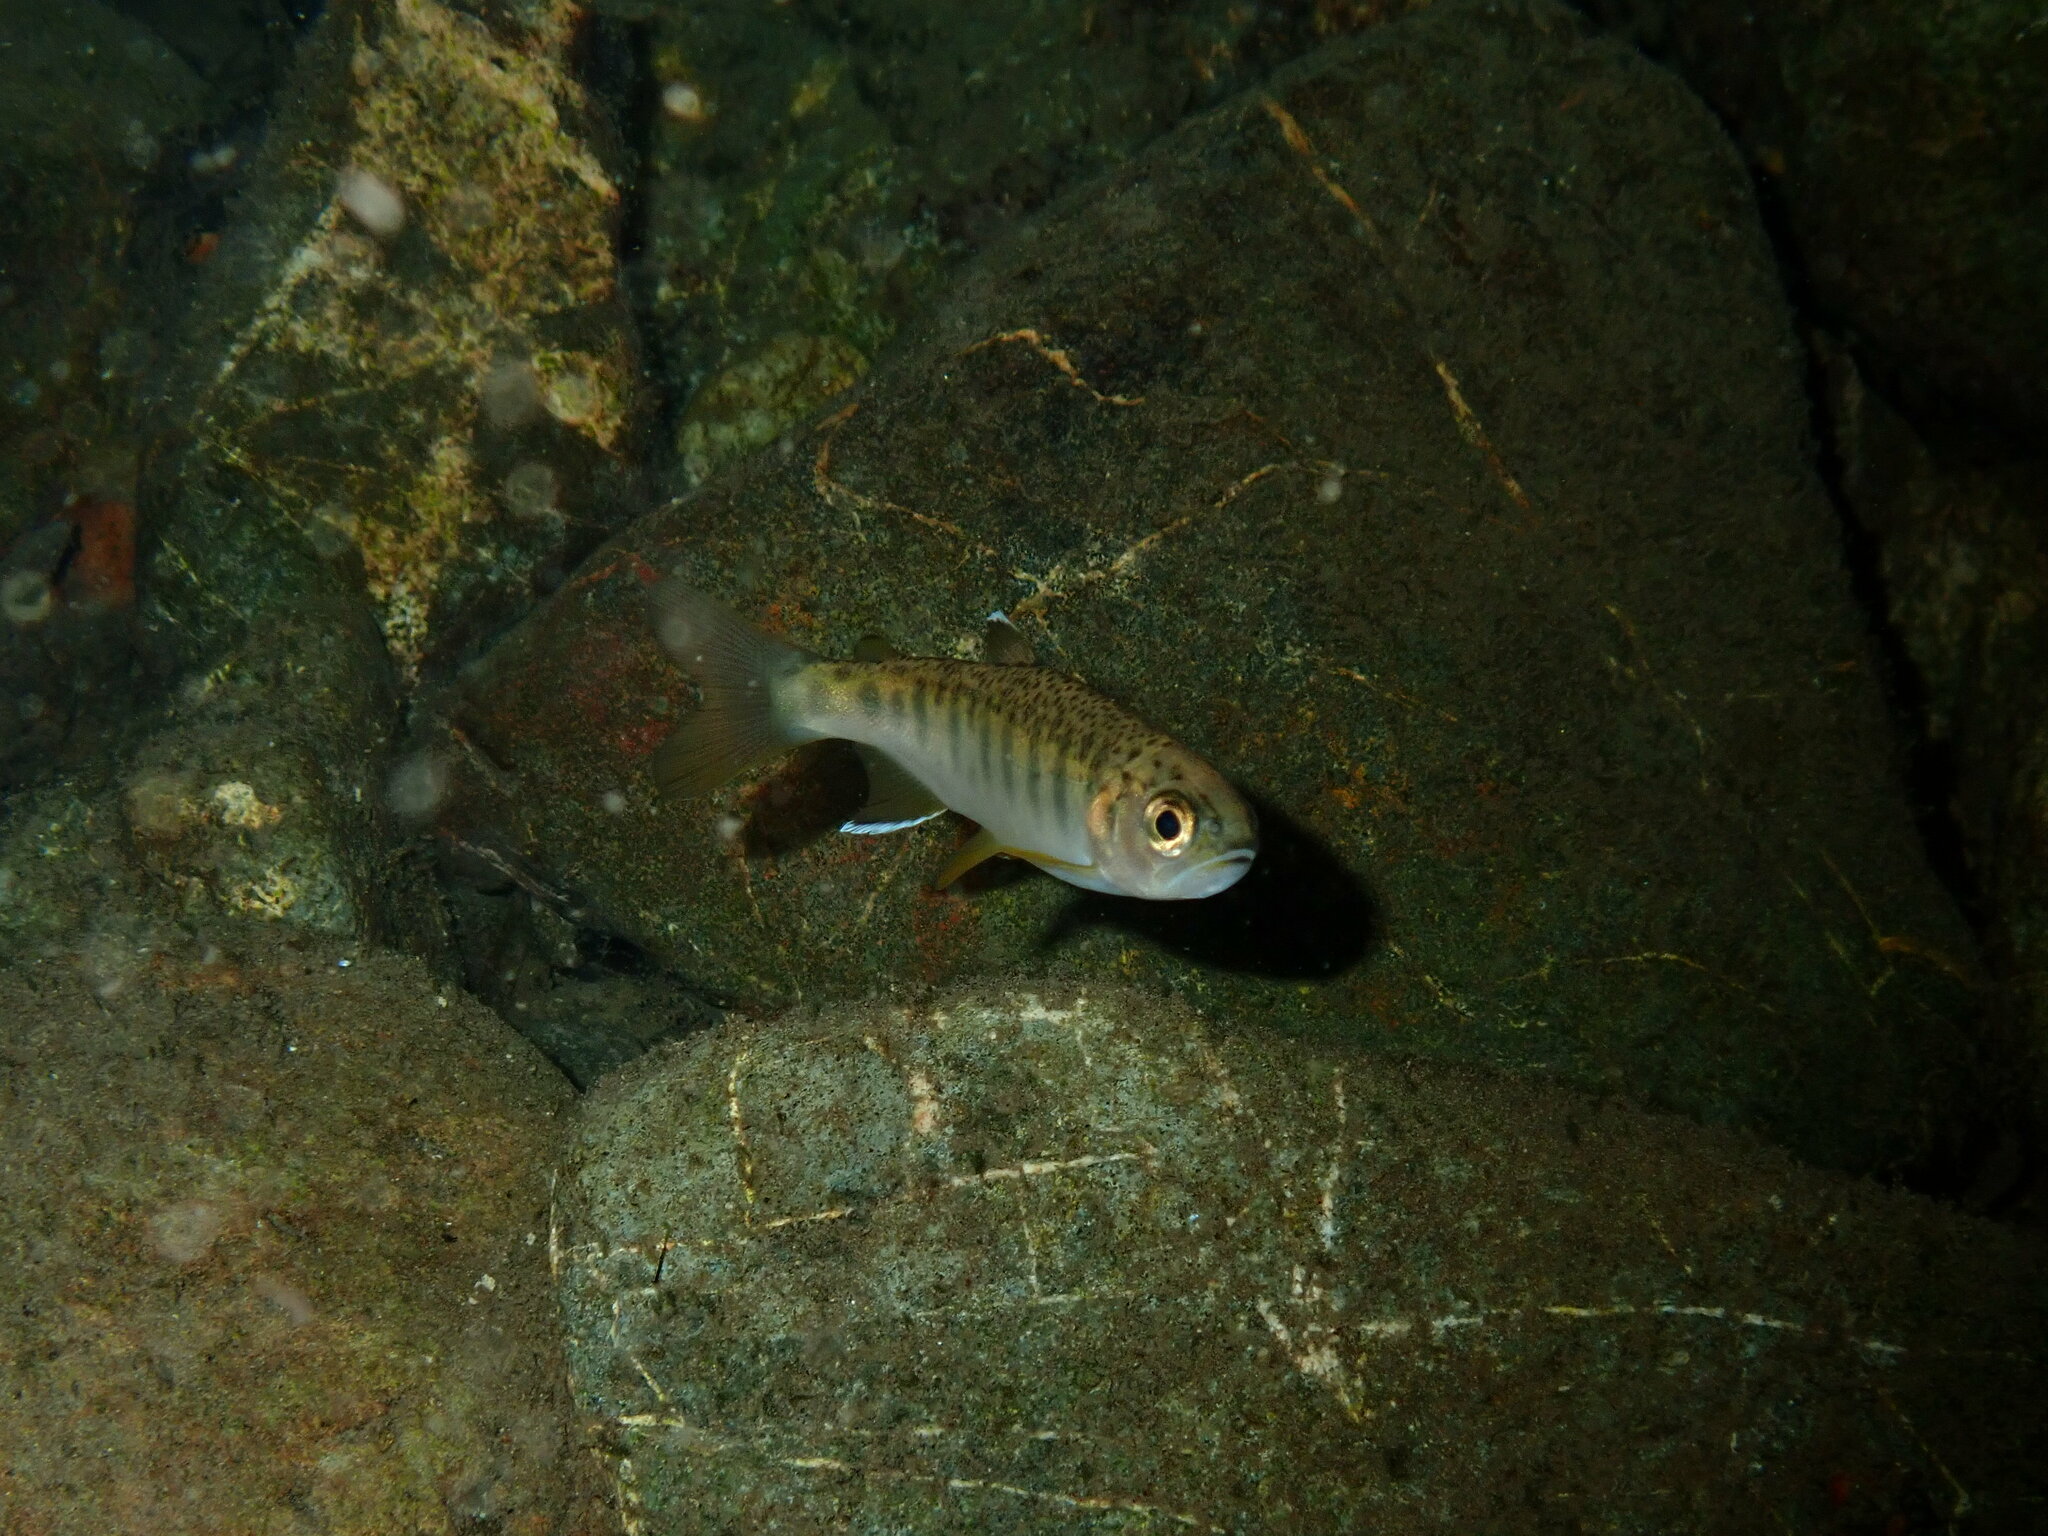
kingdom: Animalia
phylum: Chordata
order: Salmoniformes
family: Salmonidae
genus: Oncorhynchus
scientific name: Oncorhynchus kisutch
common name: Coho salmon
